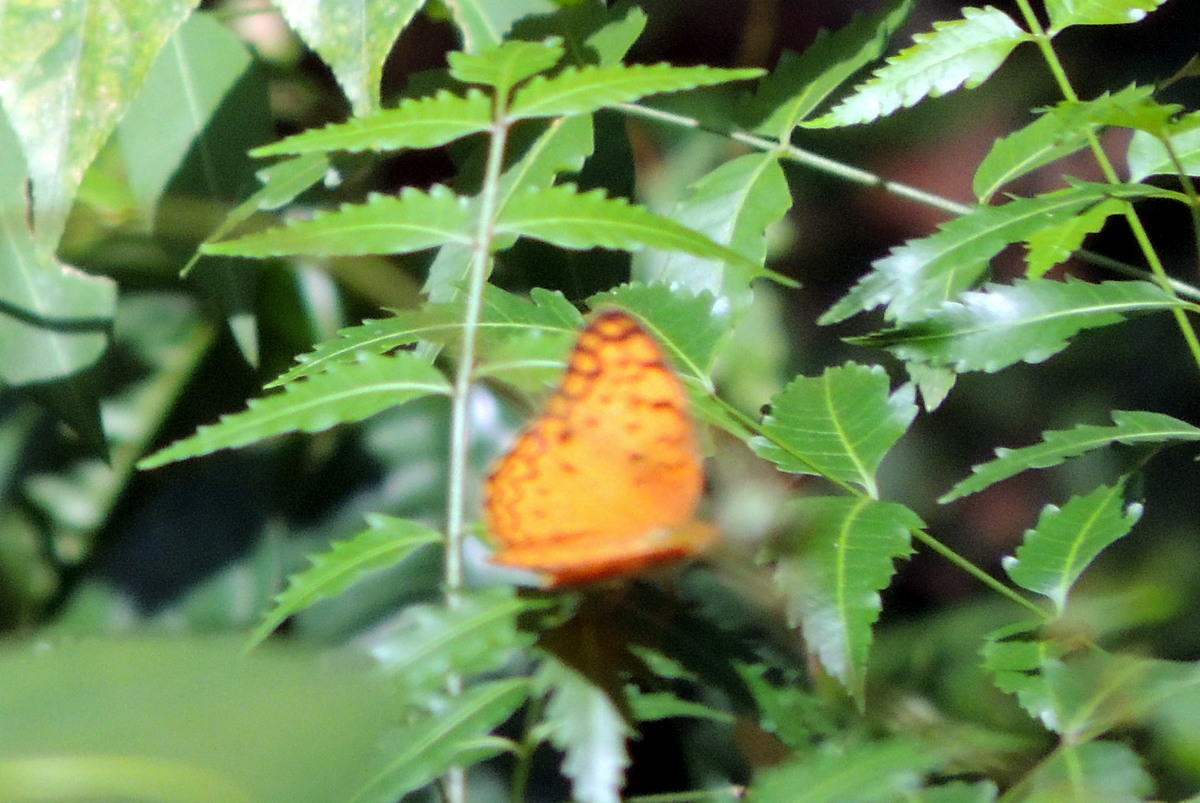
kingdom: Animalia
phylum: Arthropoda
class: Insecta
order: Lepidoptera
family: Nymphalidae
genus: Phalanta
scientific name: Phalanta phalantha
